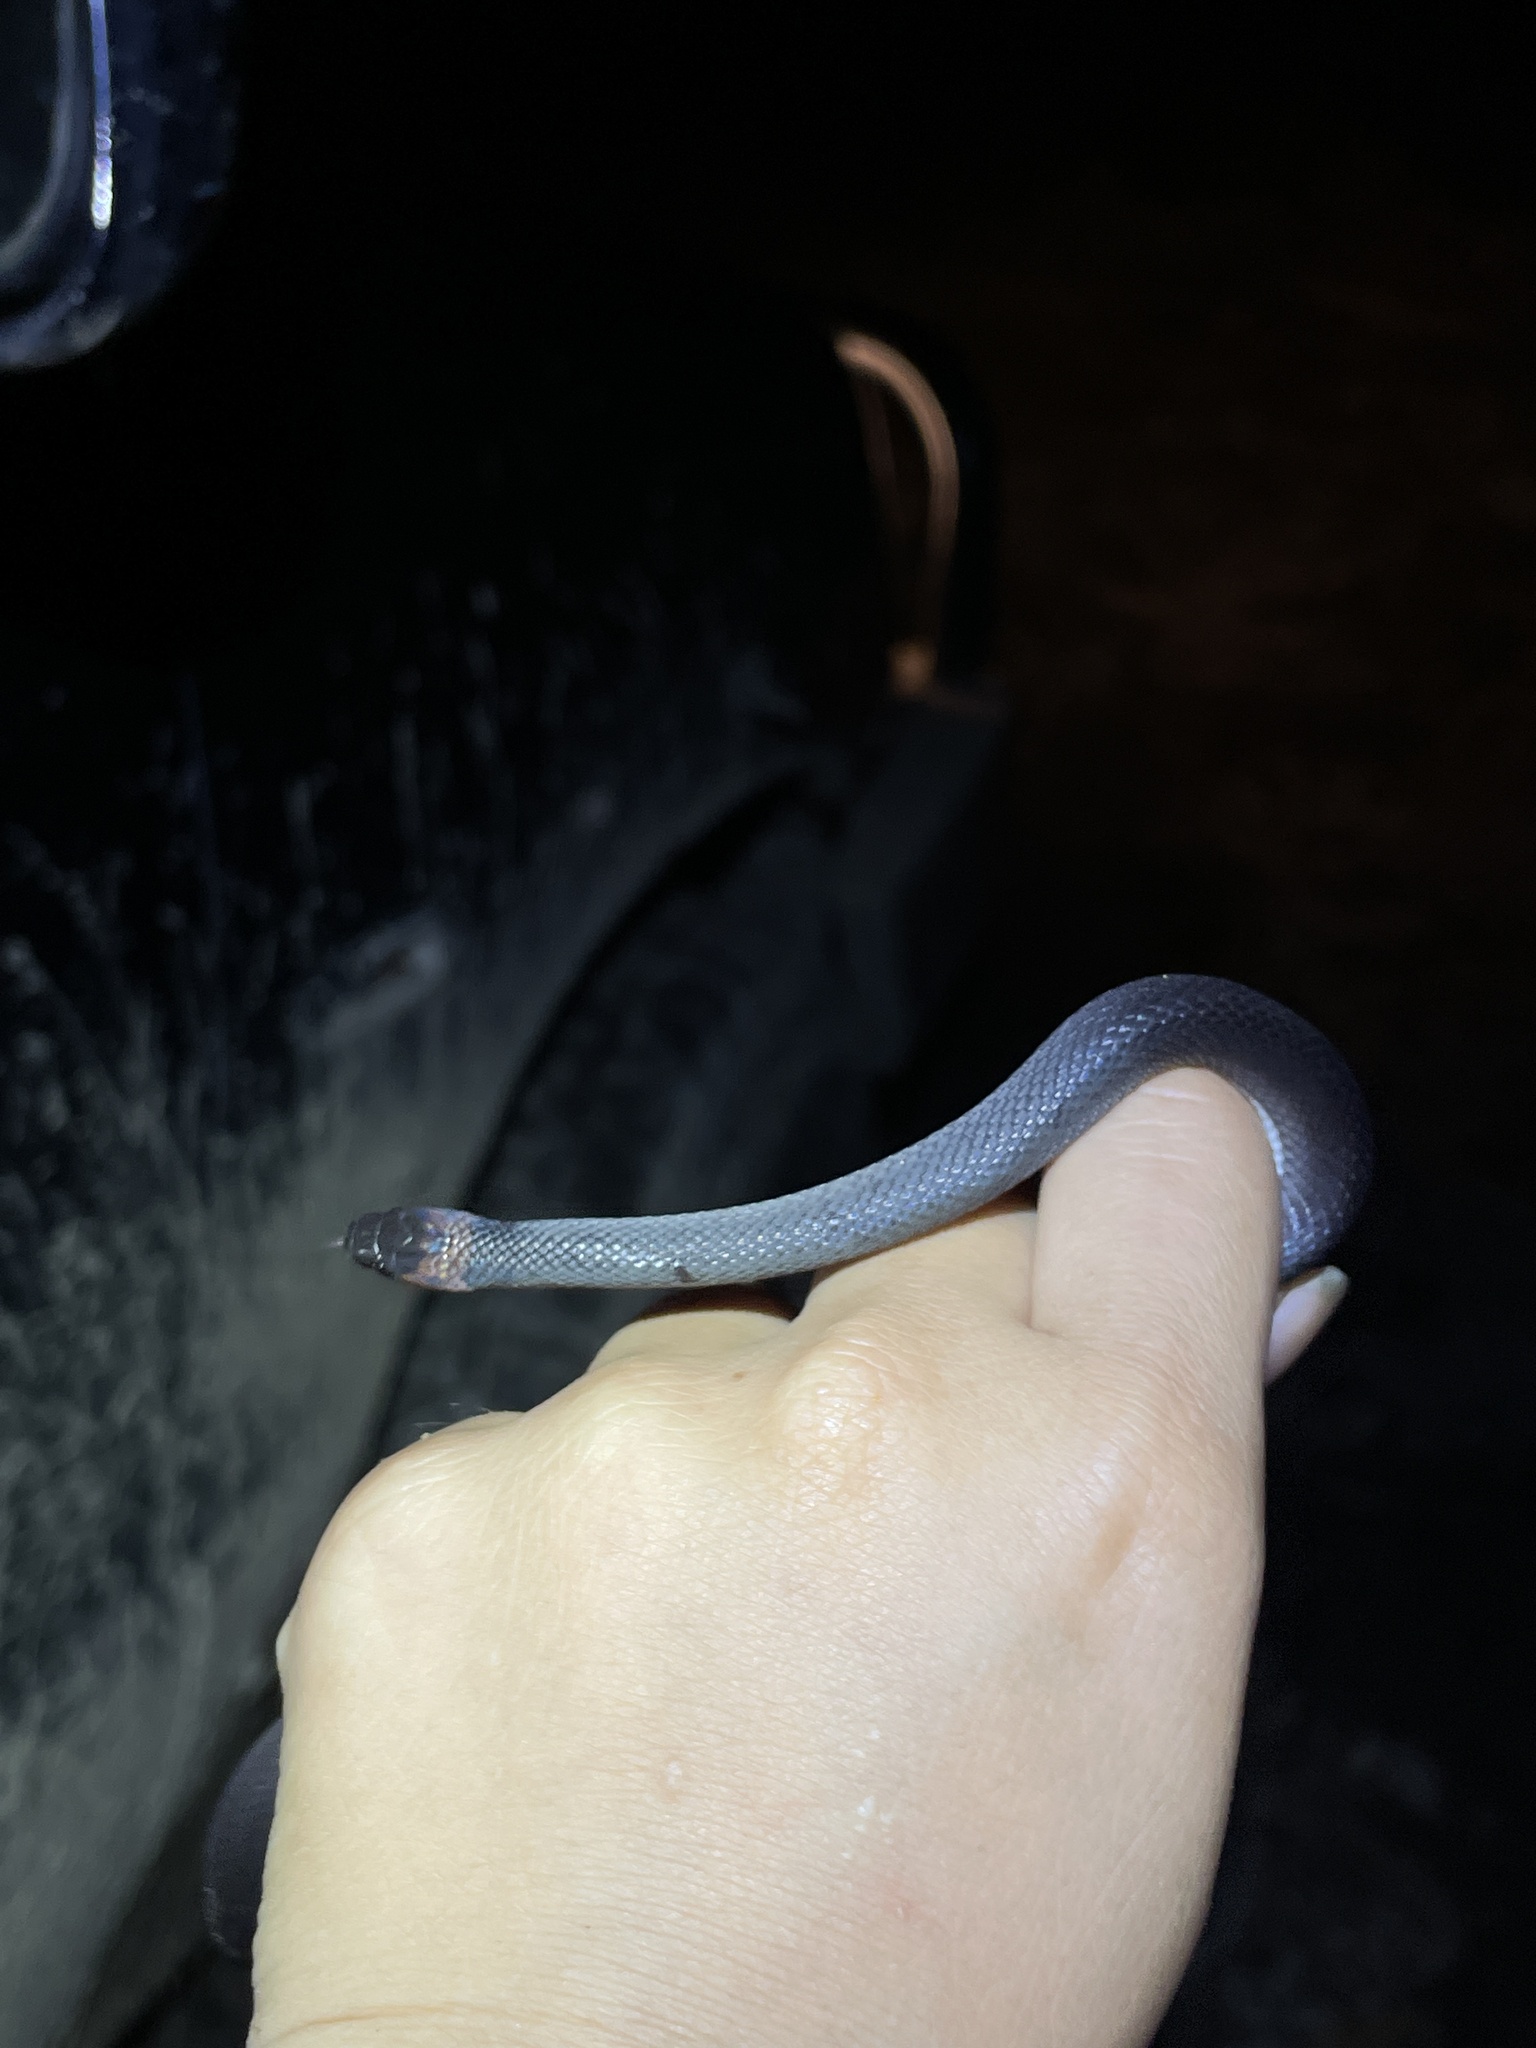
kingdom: Animalia
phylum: Chordata
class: Squamata
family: Colubridae
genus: Ninia
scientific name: Ninia atrata
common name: Hallowell's coffee snake
